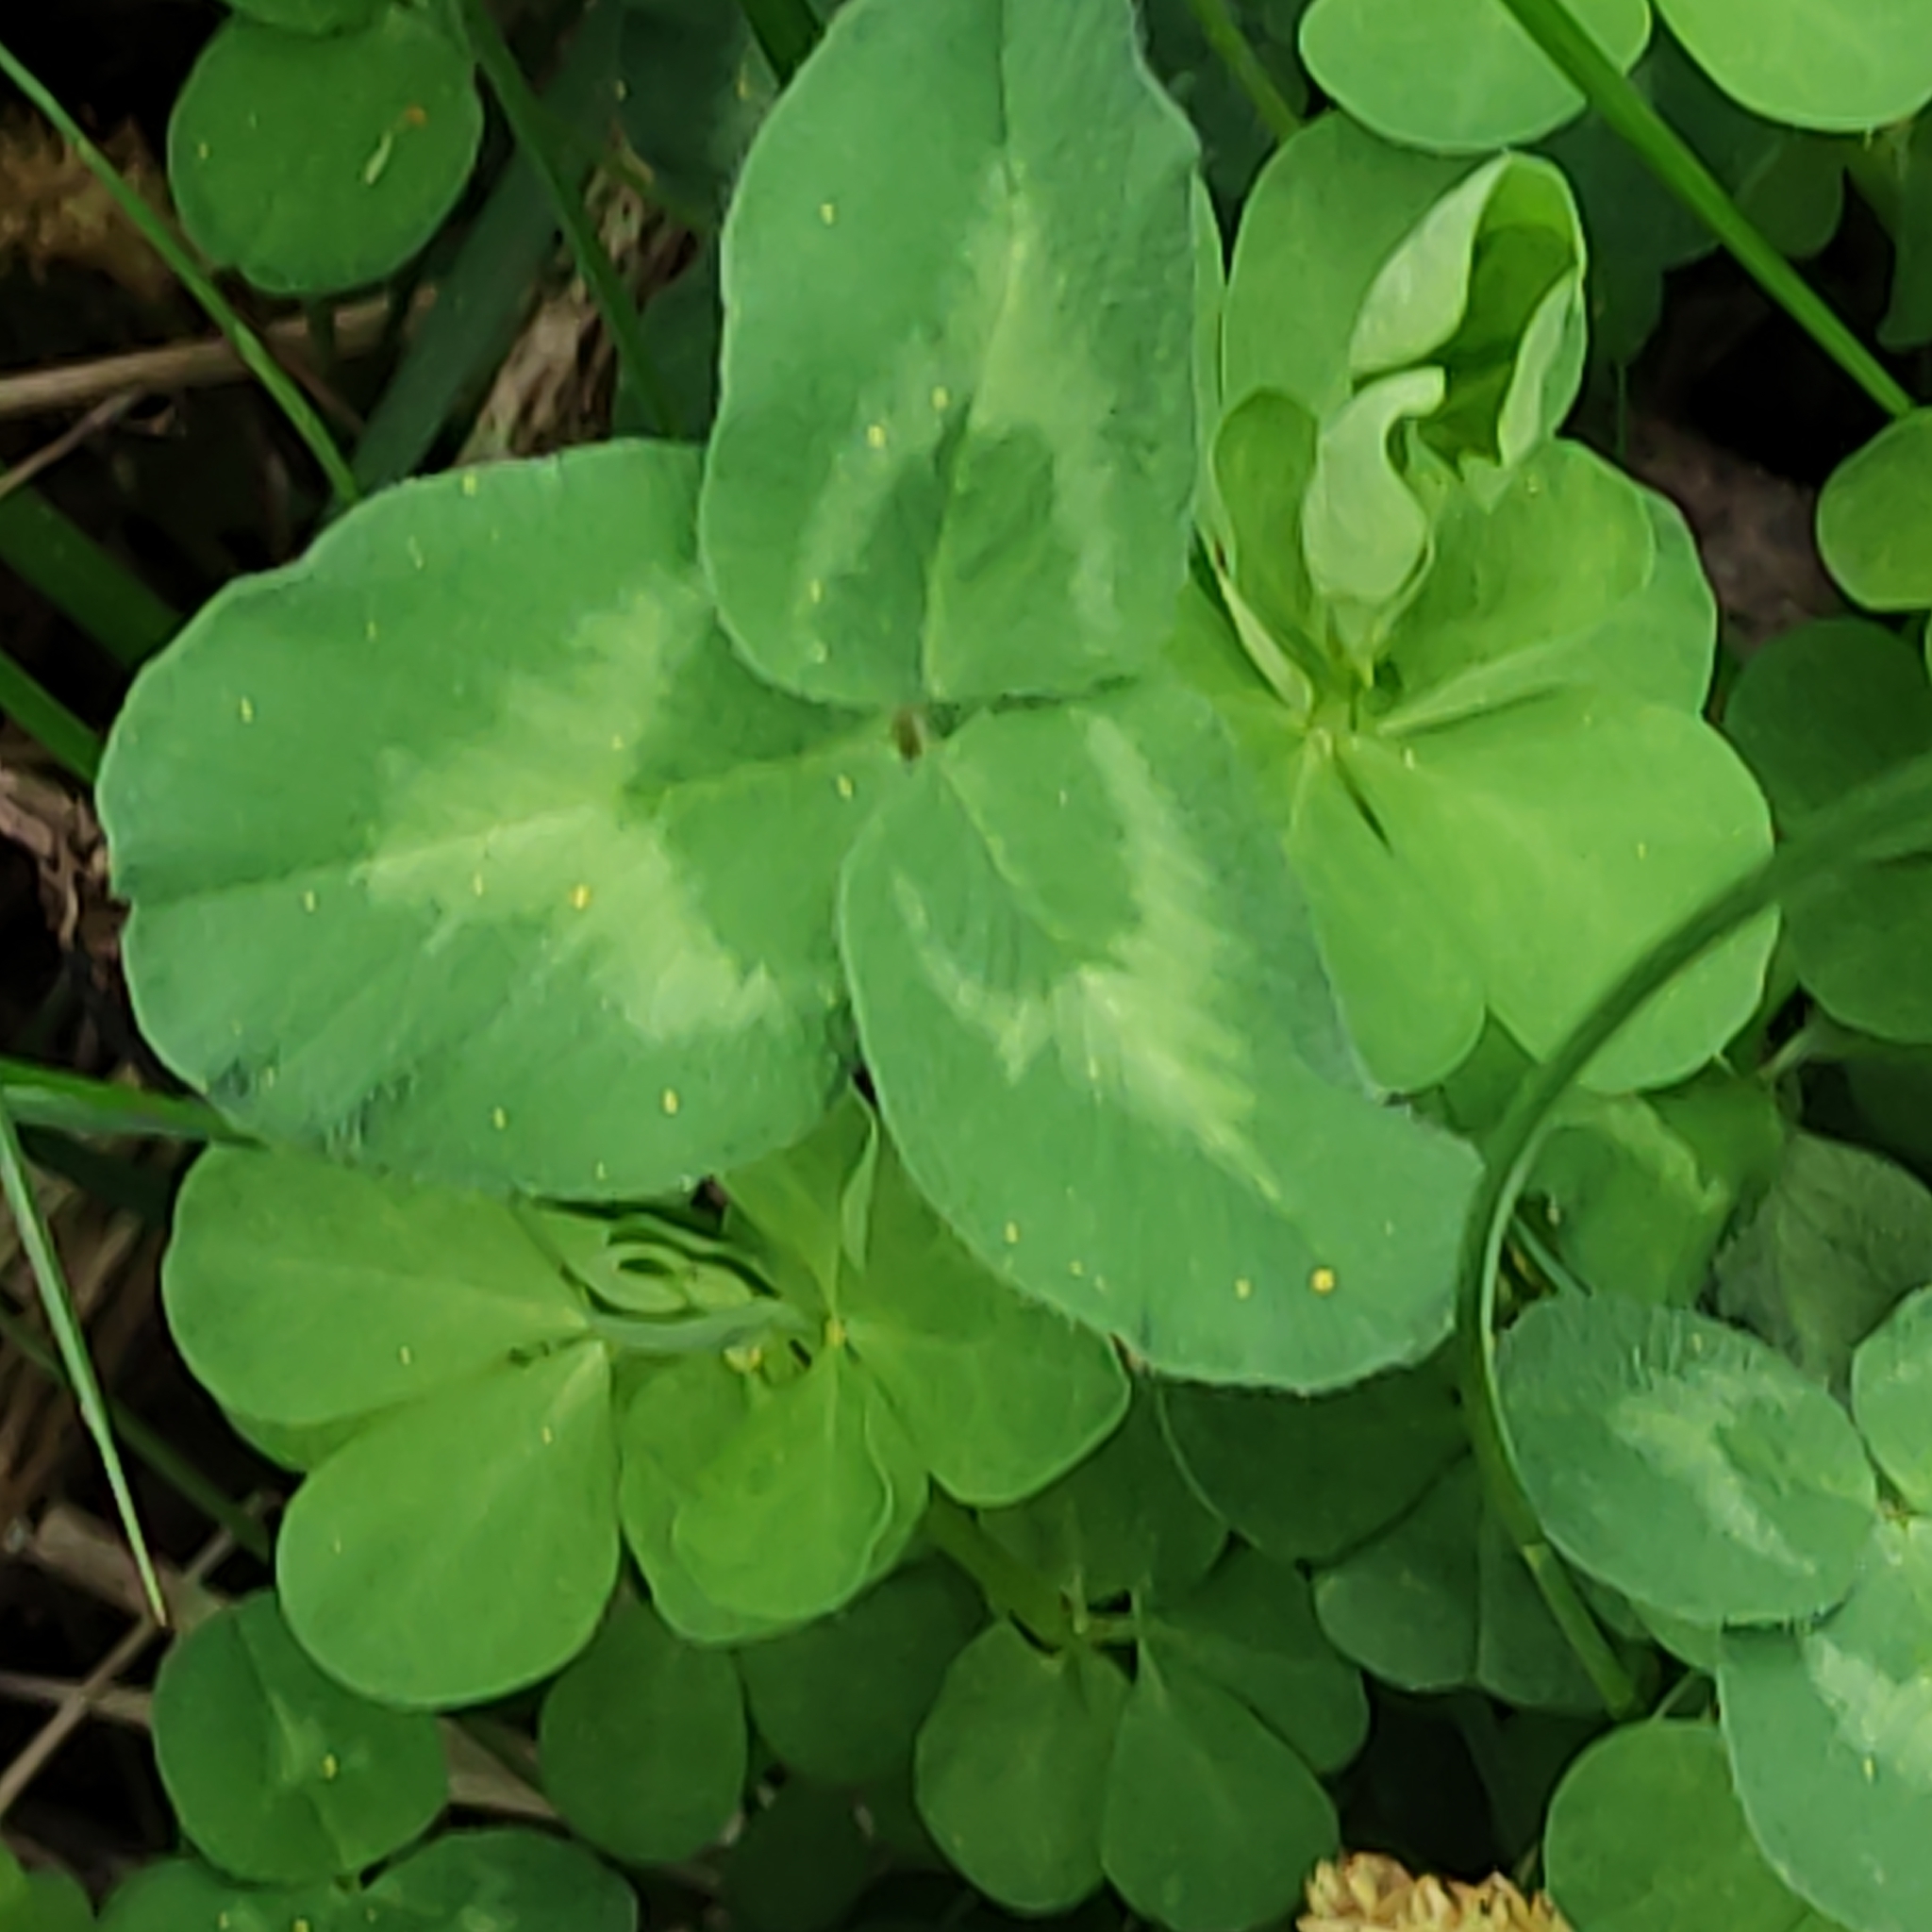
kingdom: Plantae
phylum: Tracheophyta
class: Magnoliopsida
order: Fabales
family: Fabaceae
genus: Trifolium
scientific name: Trifolium repens
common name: White clover
